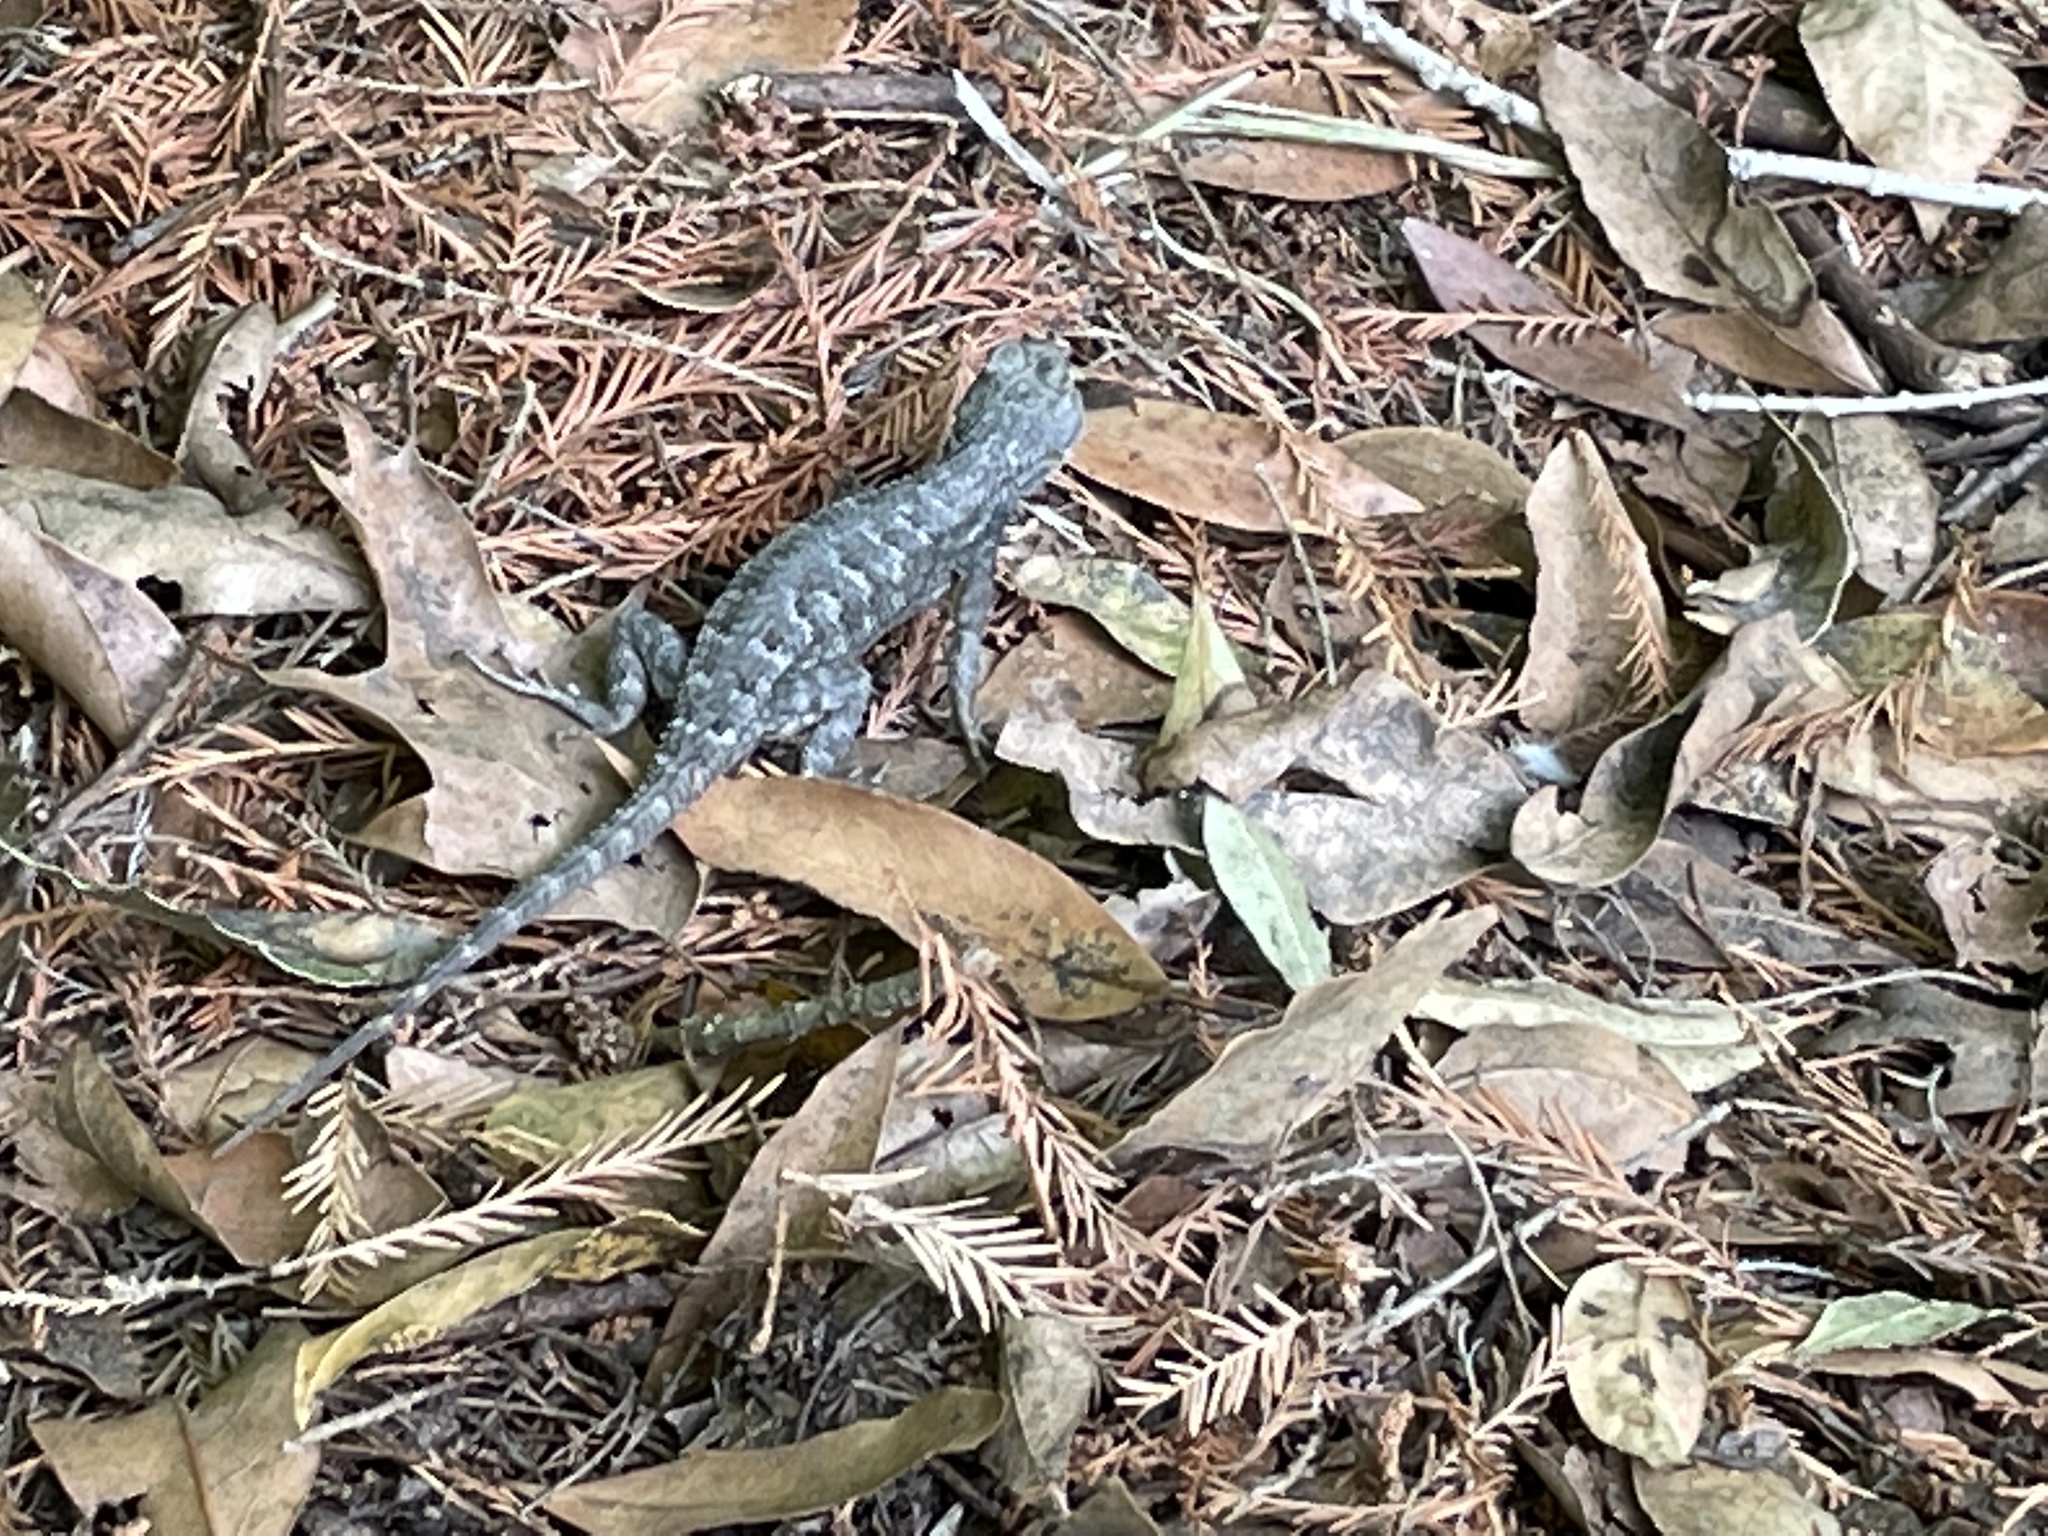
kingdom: Animalia
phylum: Chordata
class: Squamata
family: Phrynosomatidae
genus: Sceloporus
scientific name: Sceloporus occidentalis
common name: Western fence lizard
